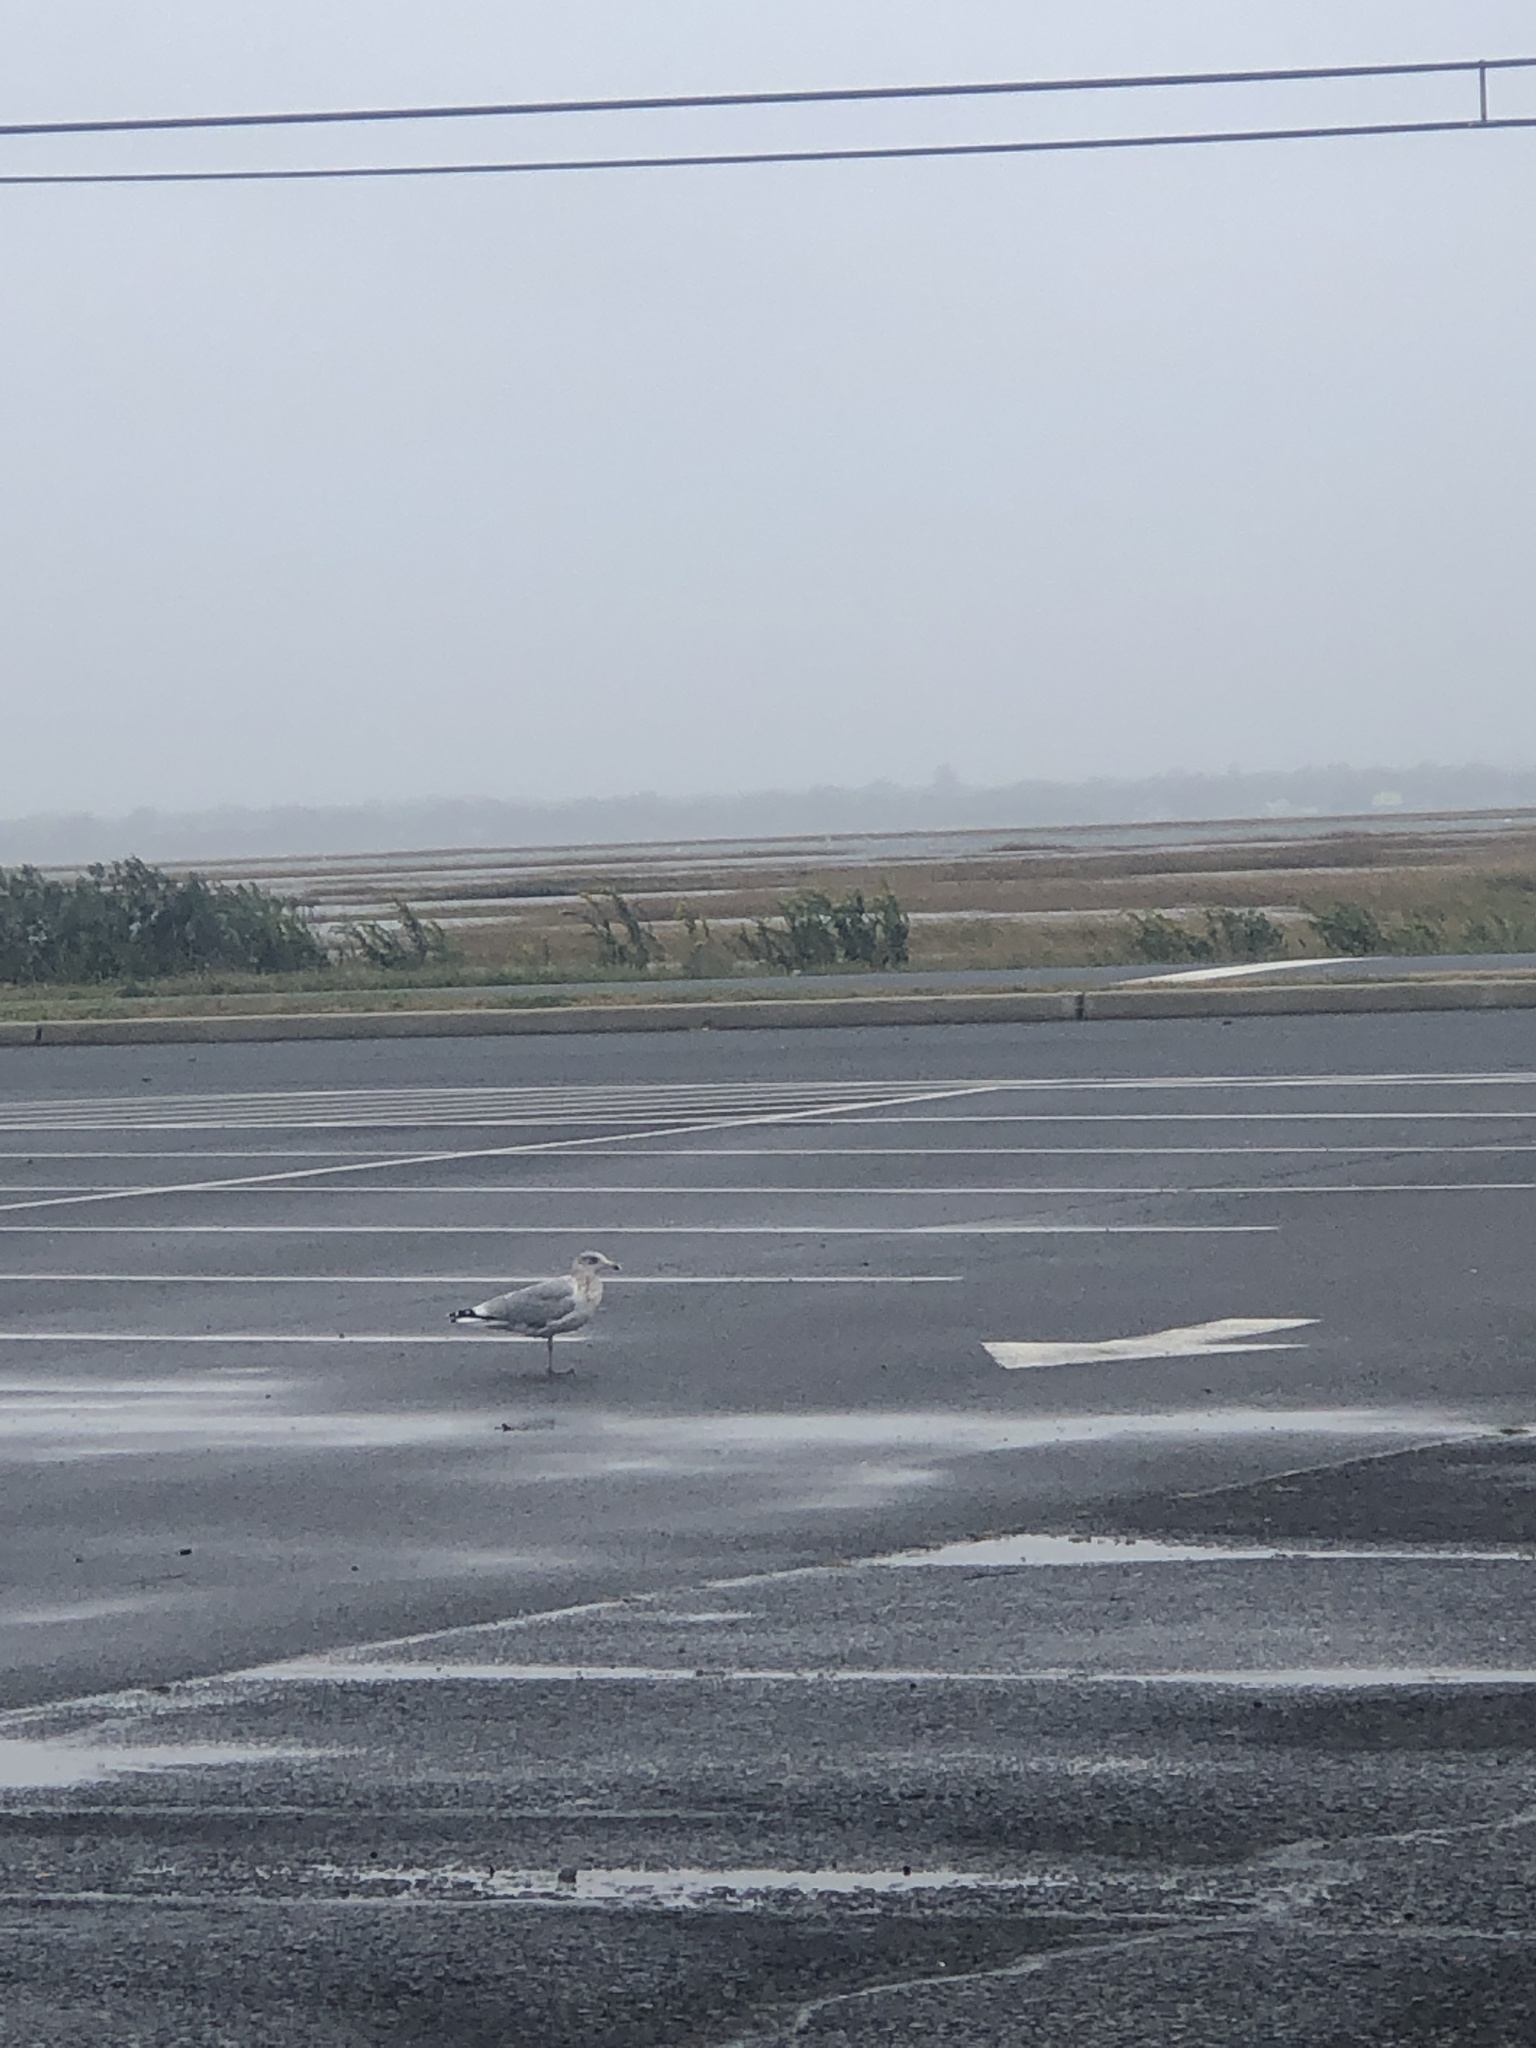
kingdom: Animalia
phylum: Chordata
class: Aves
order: Charadriiformes
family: Laridae
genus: Larus
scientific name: Larus argentatus
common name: Herring gull
